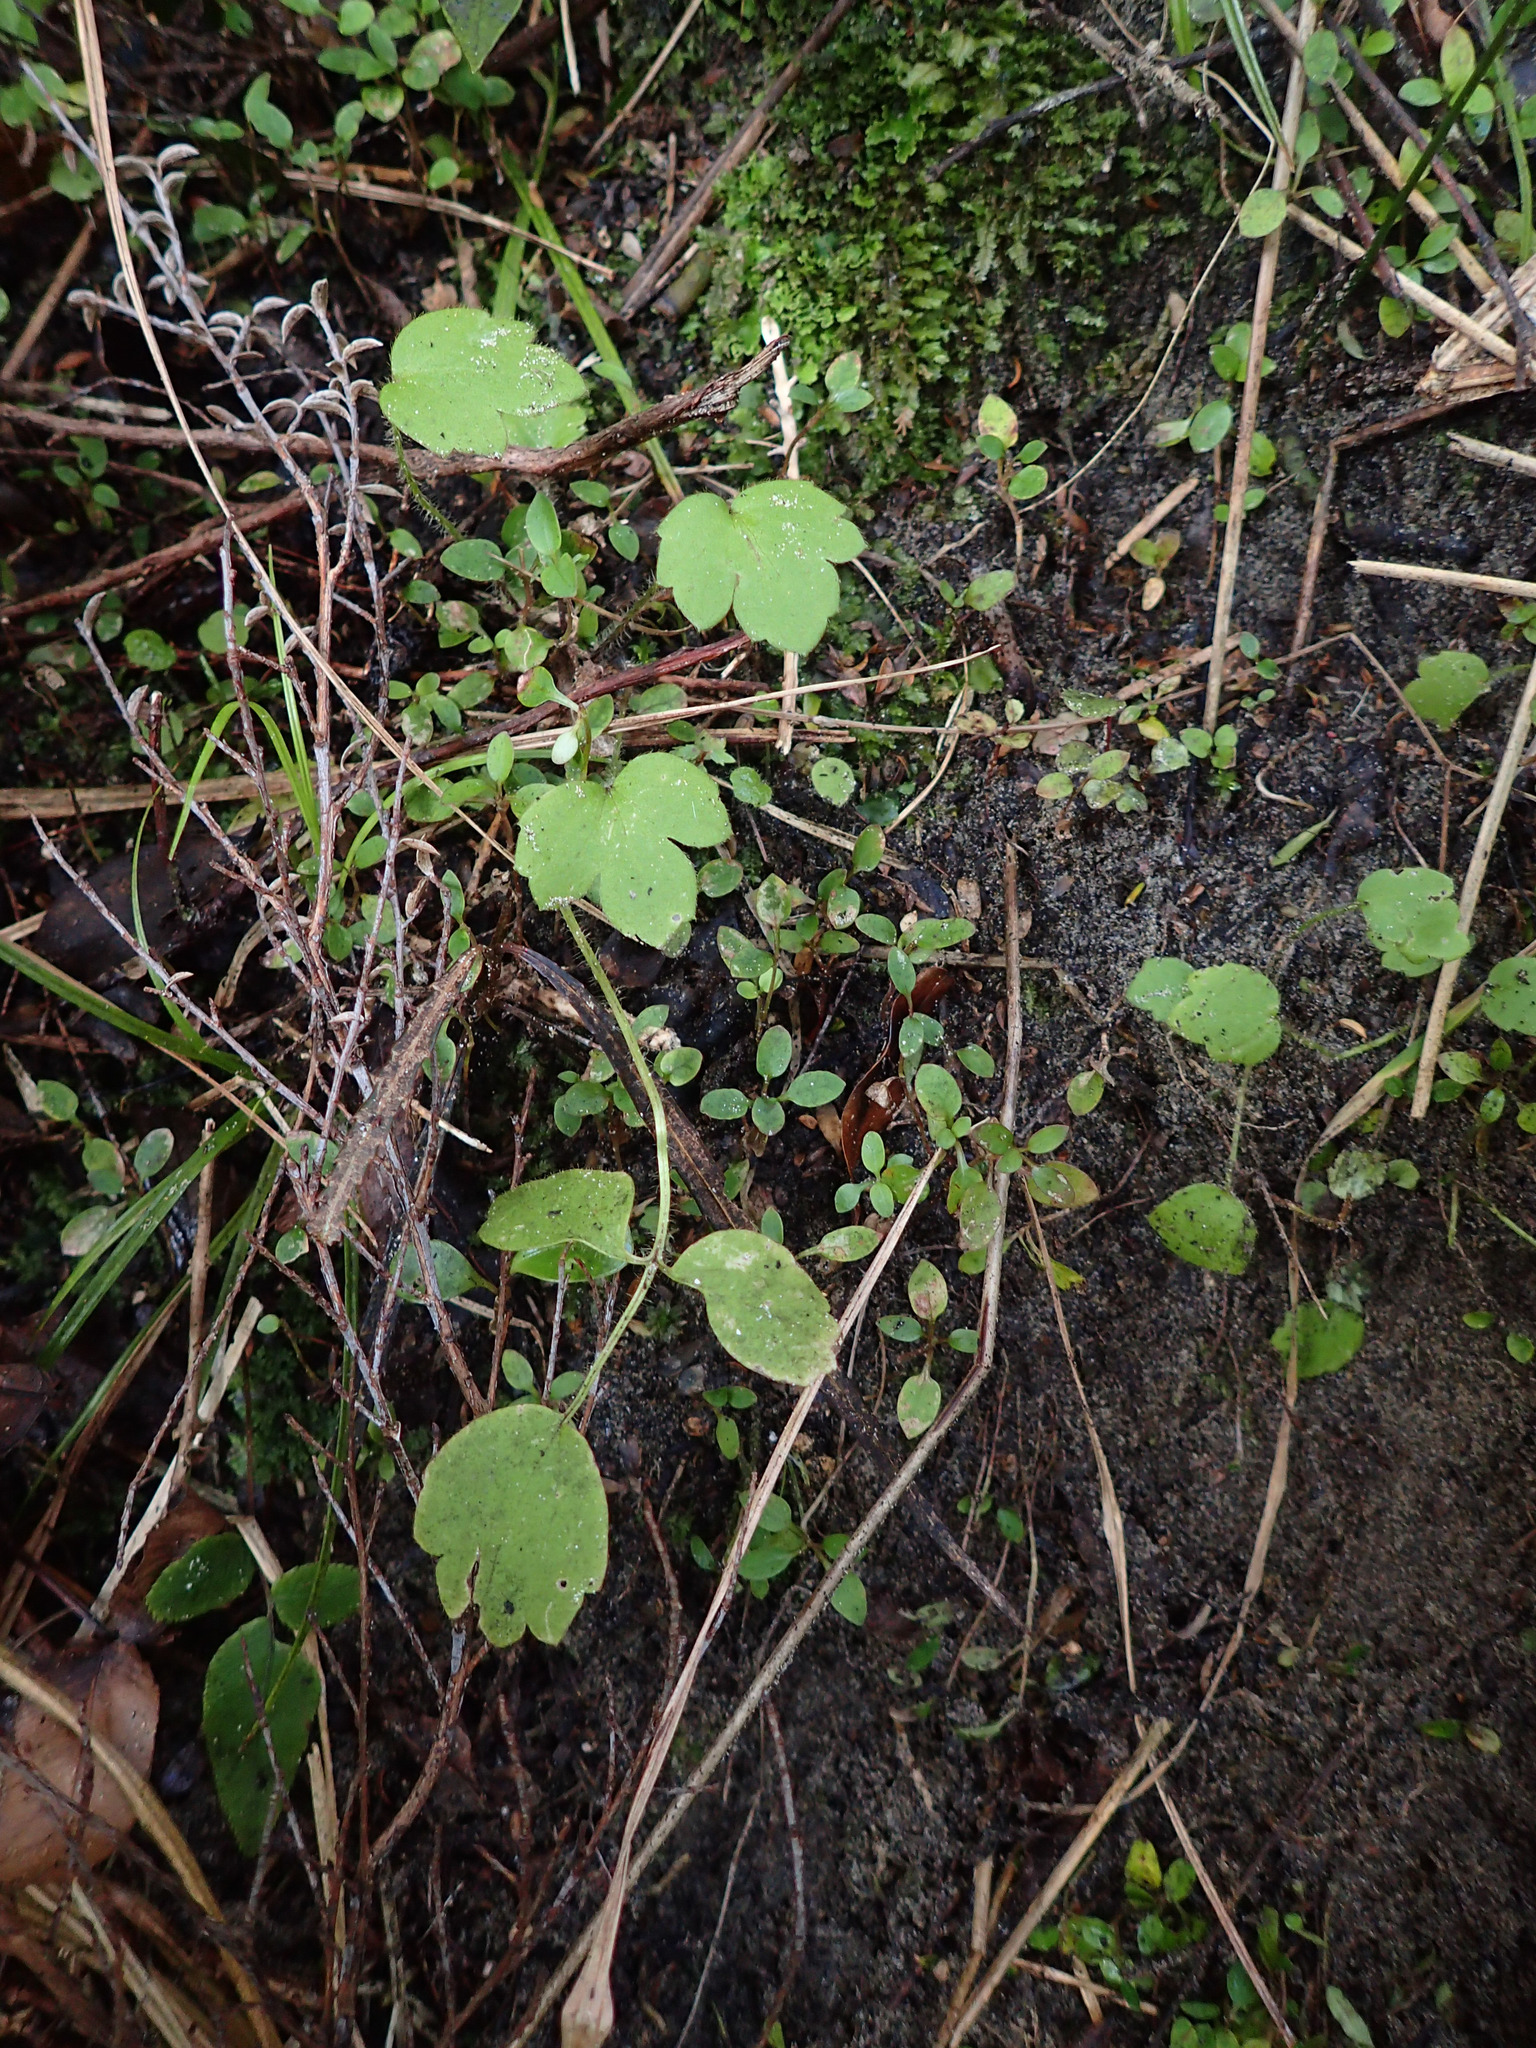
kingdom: Plantae
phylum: Tracheophyta
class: Magnoliopsida
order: Ranunculales
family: Ranunculaceae
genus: Ranunculus
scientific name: Ranunculus reflexus
